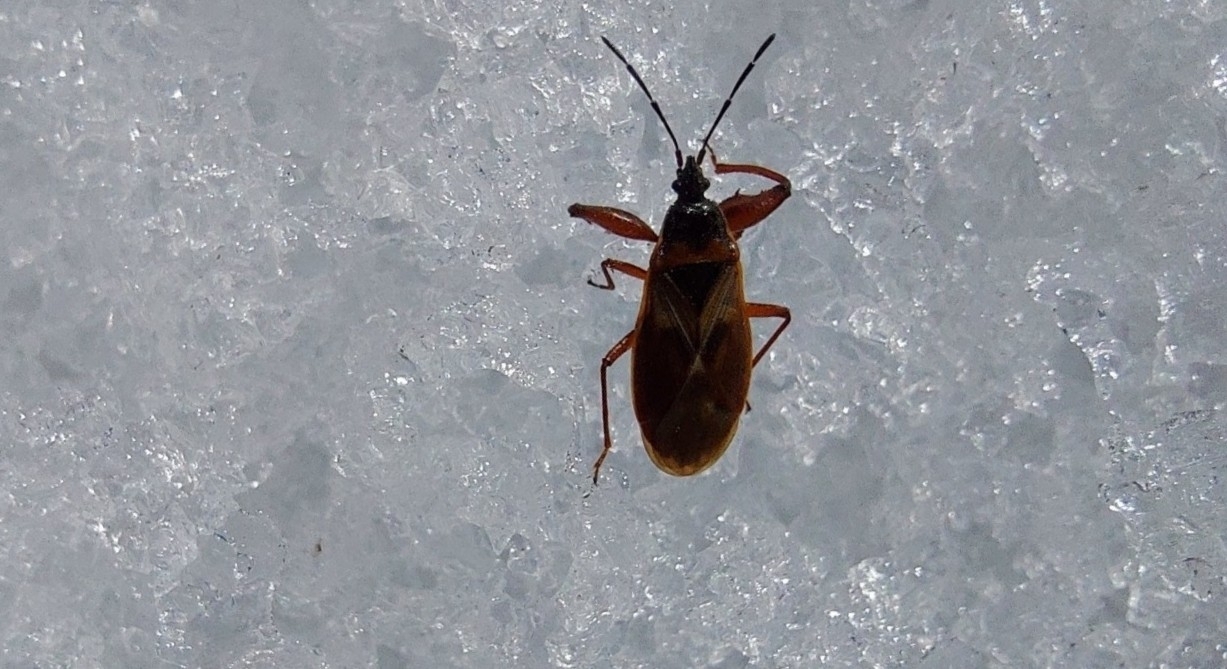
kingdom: Animalia
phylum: Arthropoda
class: Insecta
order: Hemiptera
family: Rhyparochromidae
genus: Gastrodes
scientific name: Gastrodes abietum
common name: Spruce cone bug
